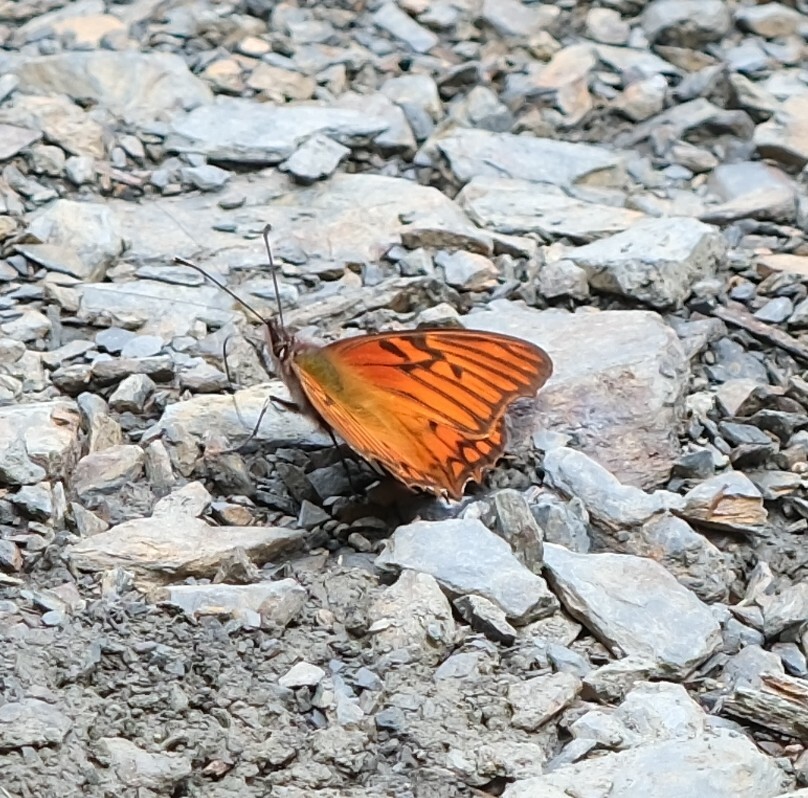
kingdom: Animalia
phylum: Arthropoda
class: Insecta
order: Lepidoptera
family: Nymphalidae
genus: Dione
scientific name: Dione glycera
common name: Andean silverspot
